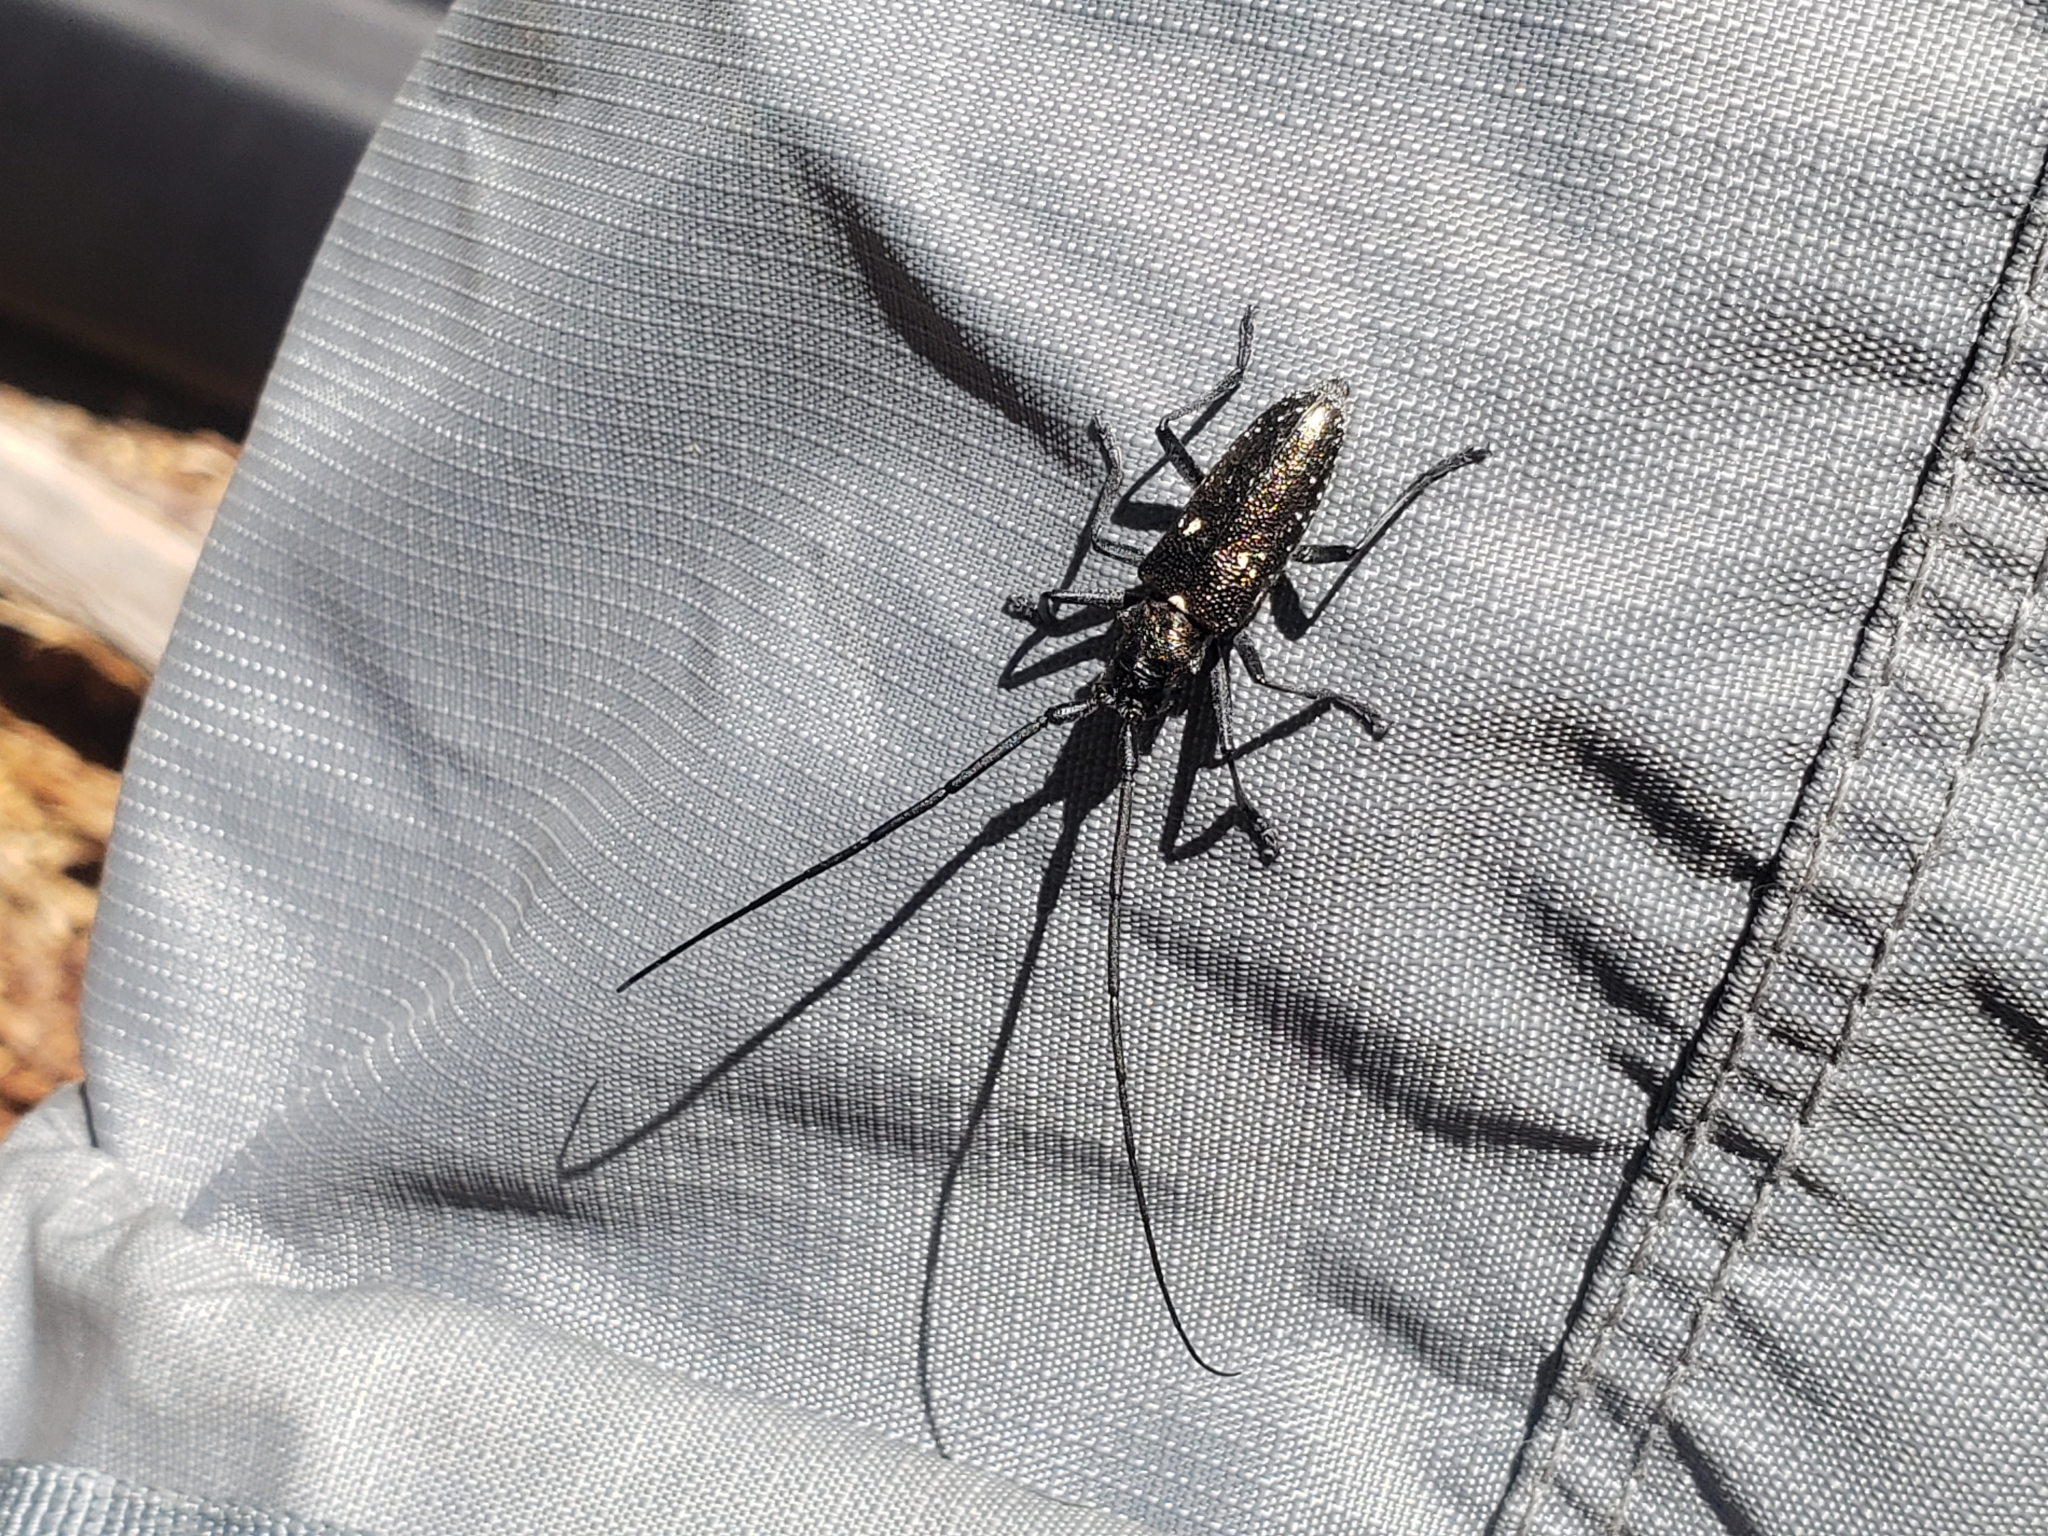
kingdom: Animalia
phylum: Arthropoda
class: Insecta
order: Coleoptera
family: Cerambycidae
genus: Monochamus
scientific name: Monochamus scutellatus
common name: White-spotted sawyer beetle
